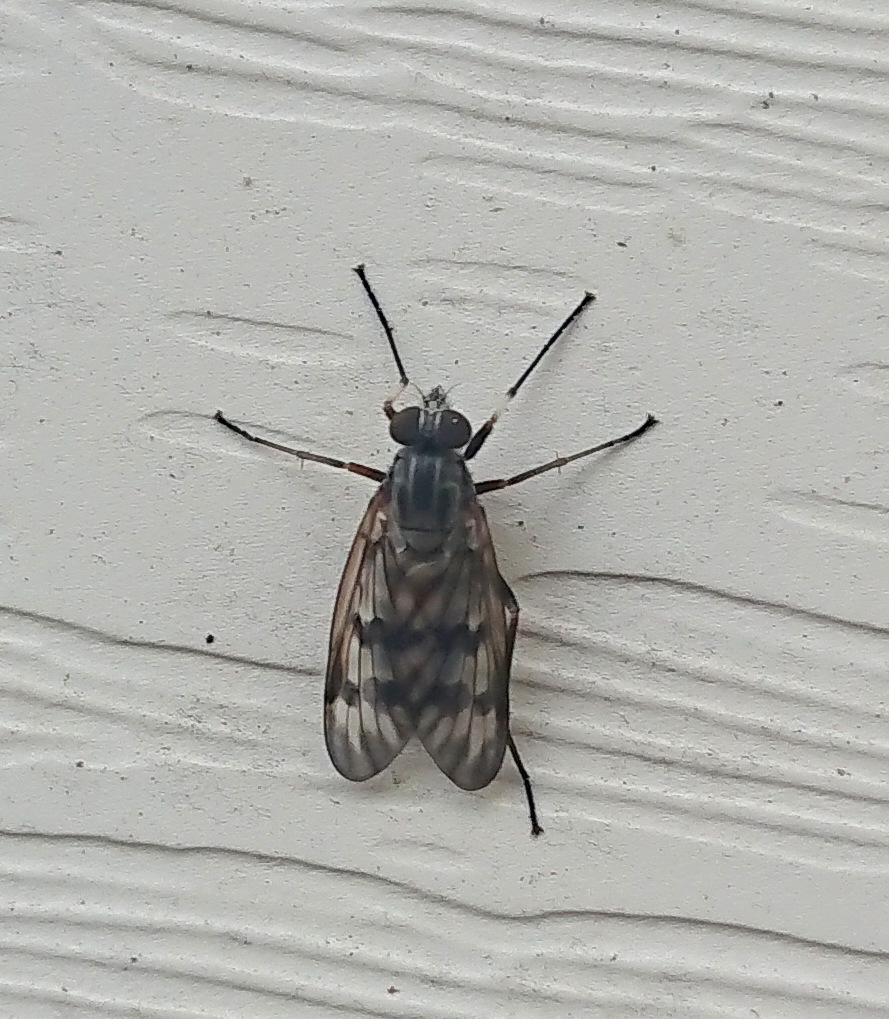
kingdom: Animalia
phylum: Arthropoda
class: Insecta
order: Diptera
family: Rhagionidae
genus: Rhagio
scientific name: Rhagio mystaceus
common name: Common snipe fly
